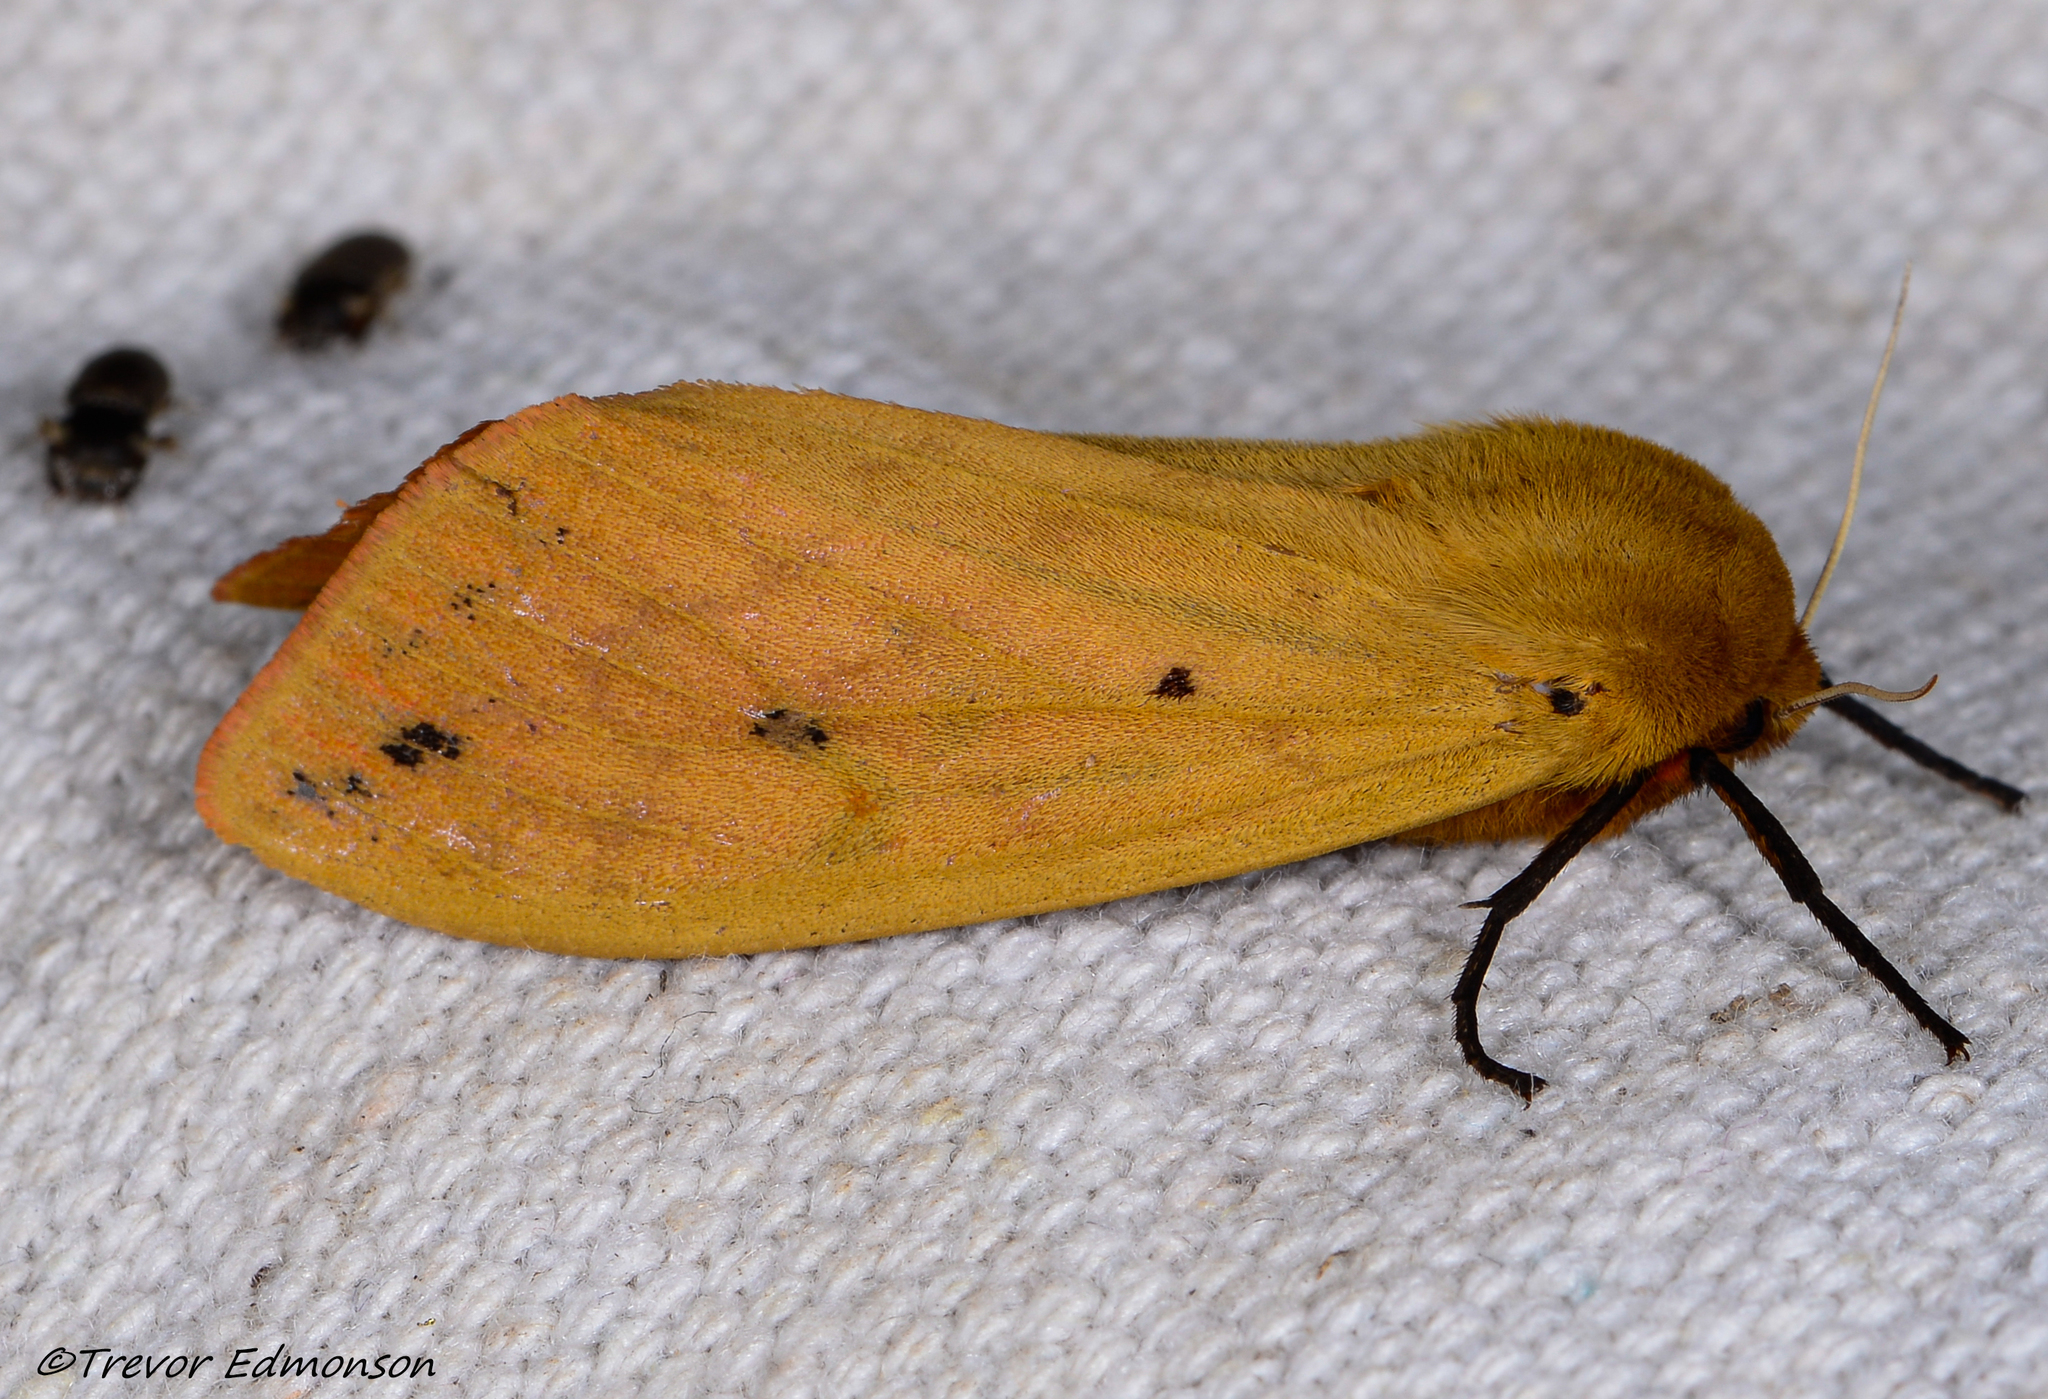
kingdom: Animalia
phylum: Arthropoda
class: Insecta
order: Lepidoptera
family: Erebidae
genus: Pyrrharctia
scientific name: Pyrrharctia isabella
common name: Isabella tiger moth
